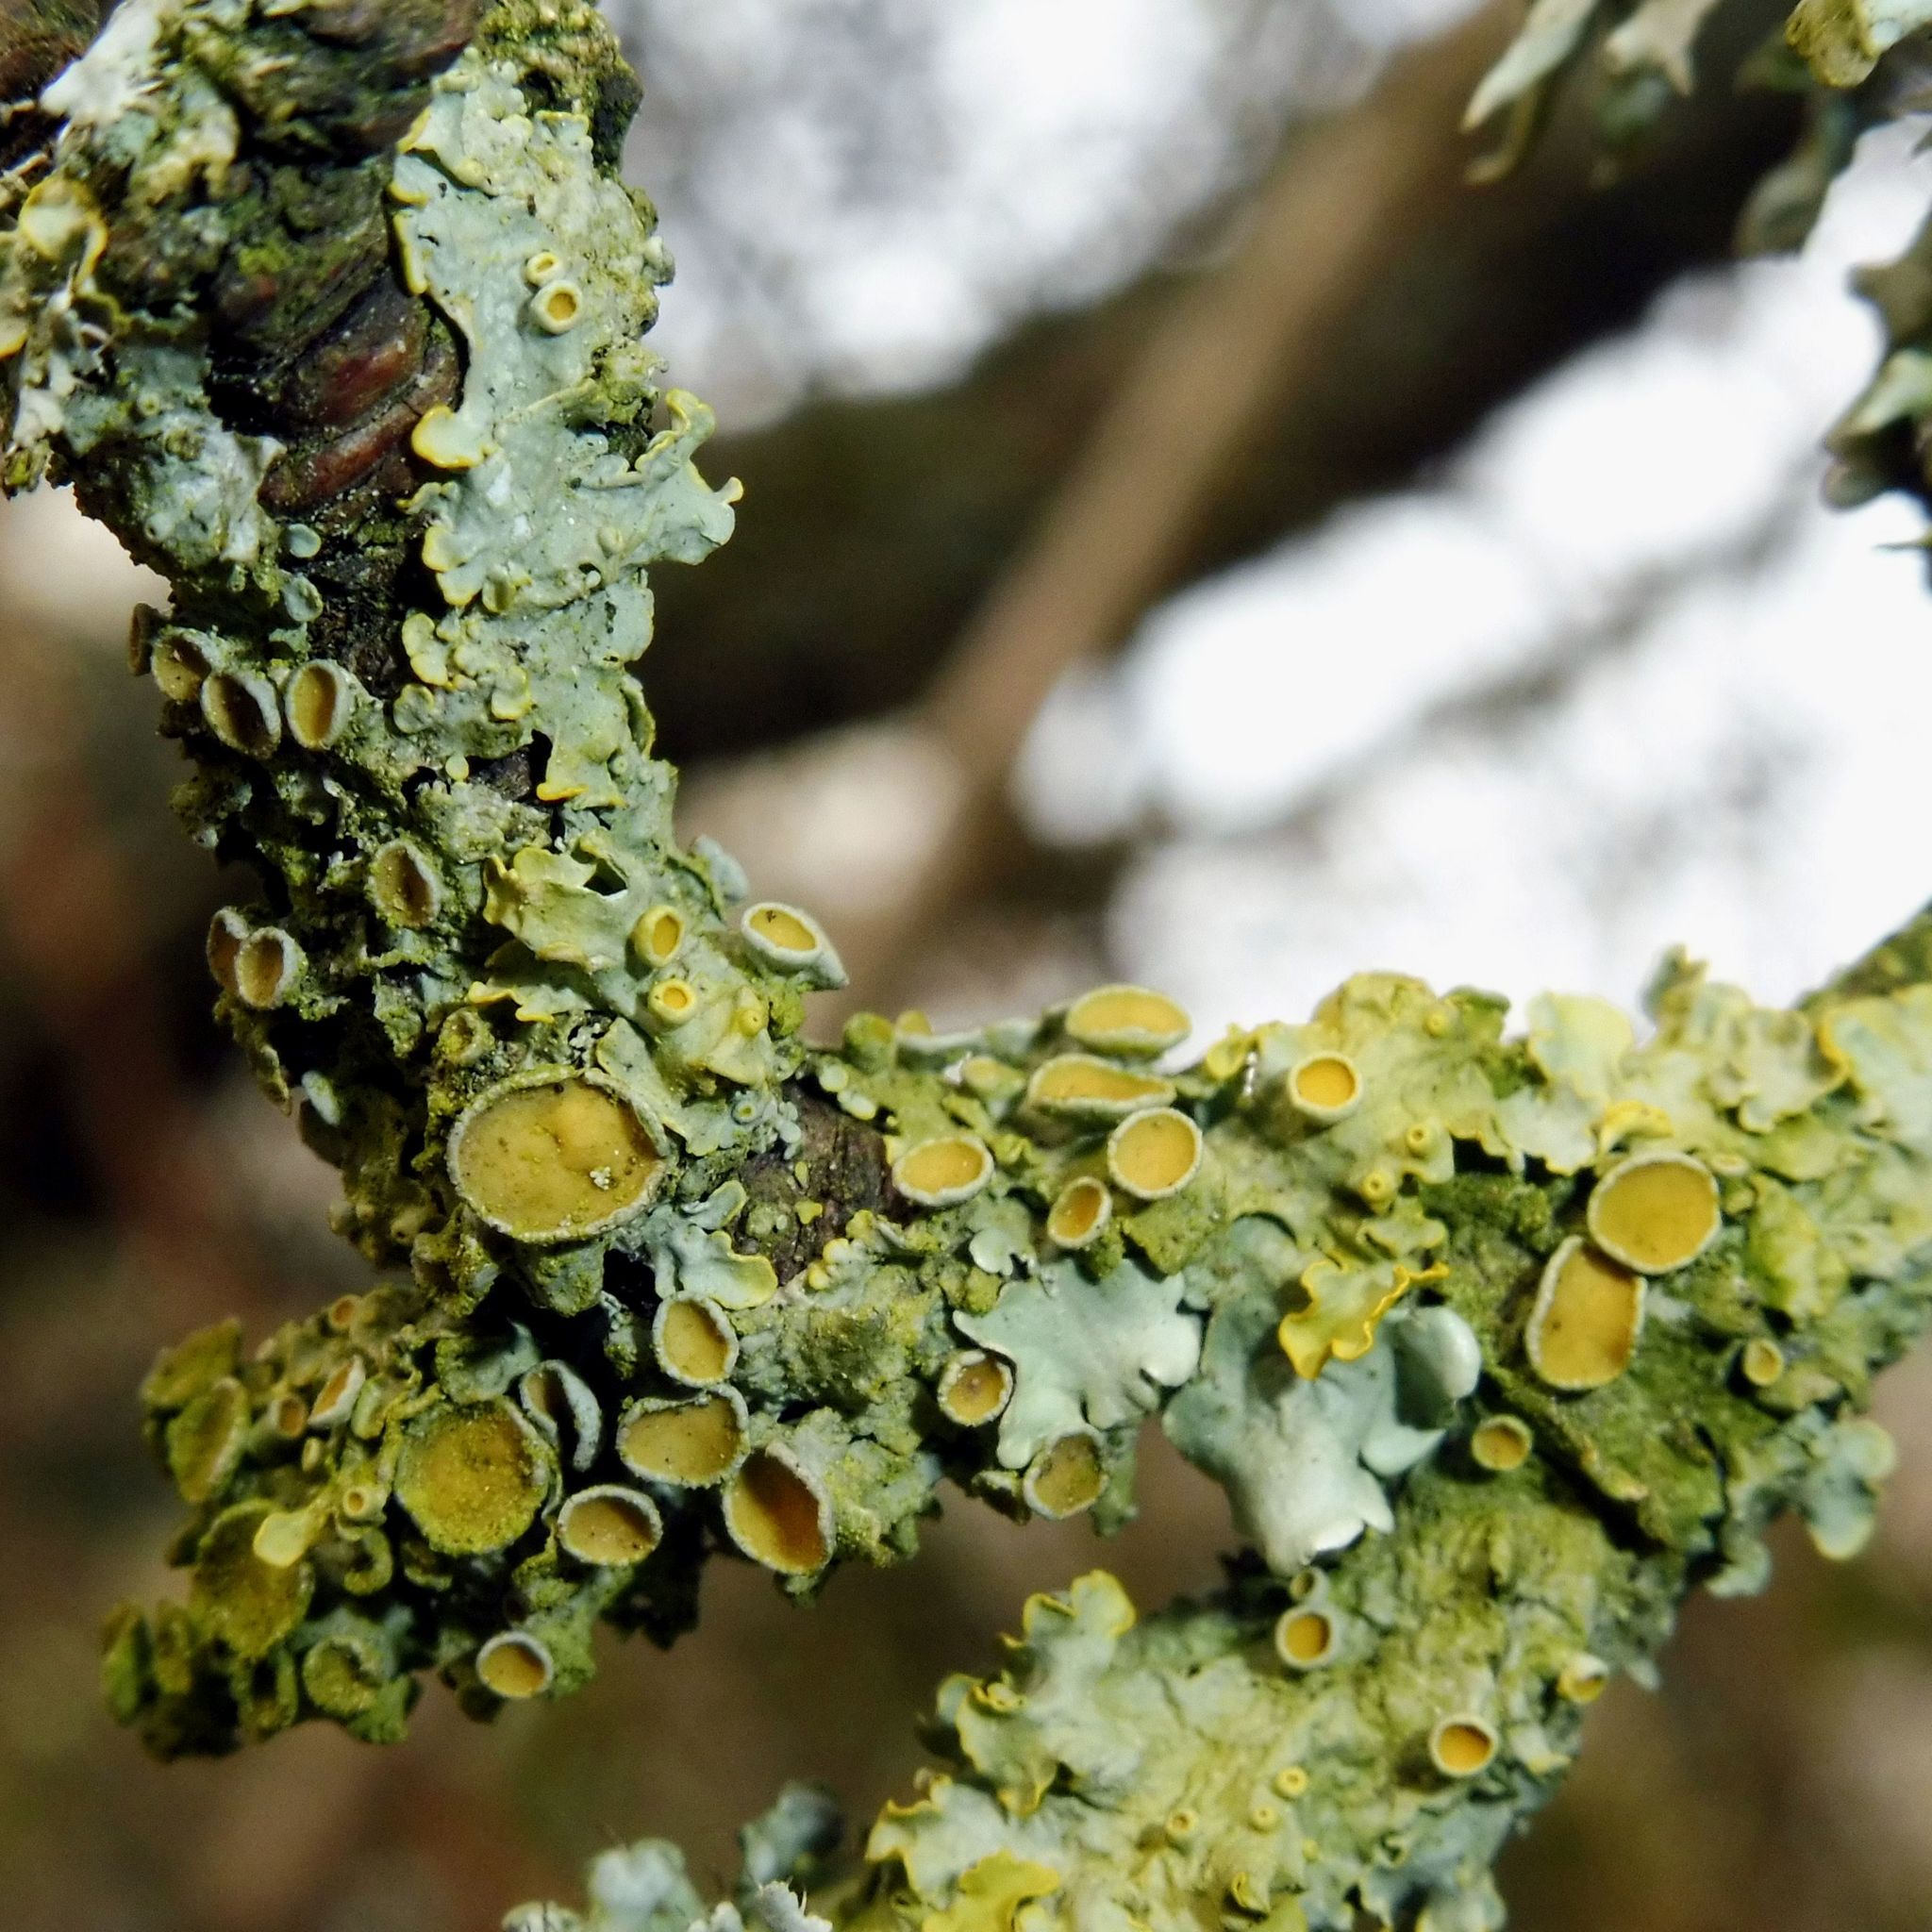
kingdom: Fungi
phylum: Ascomycota
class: Lecanoromycetes
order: Teloschistales
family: Teloschistaceae
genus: Xanthoria
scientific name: Xanthoria parietina
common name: Common orange lichen
